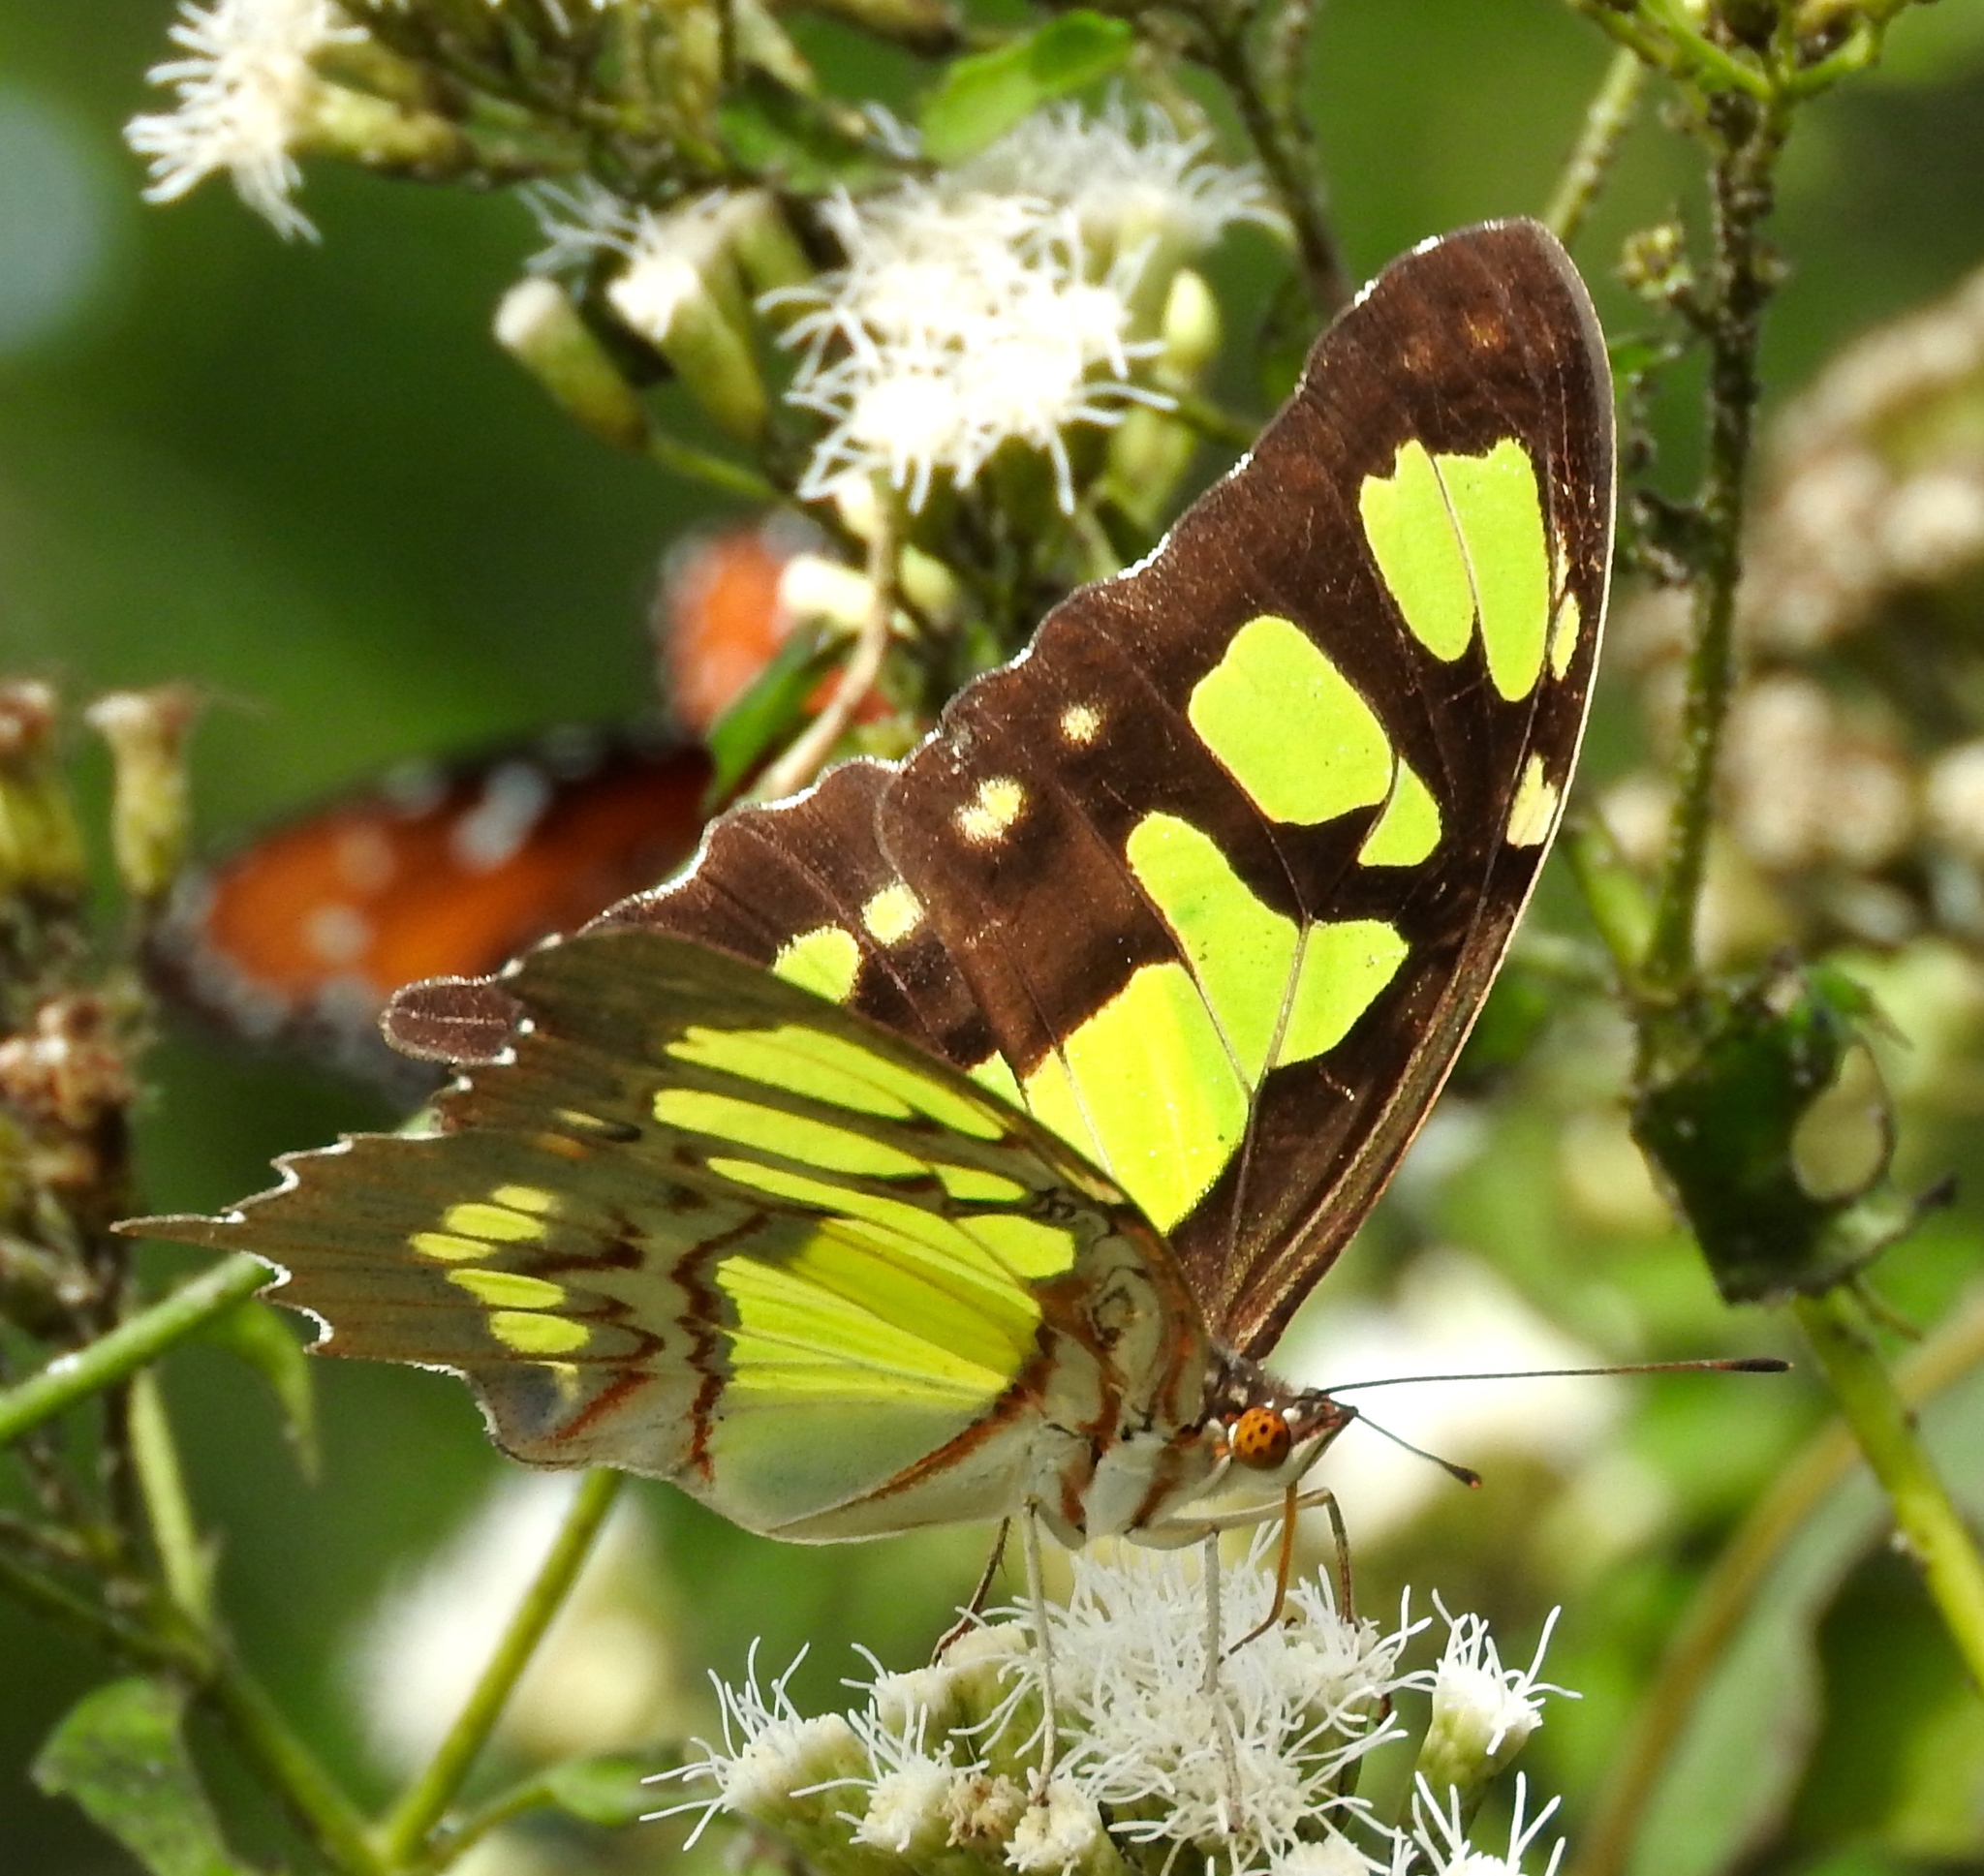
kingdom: Animalia
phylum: Arthropoda
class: Insecta
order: Lepidoptera
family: Nymphalidae
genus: Siproeta
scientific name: Siproeta stelenes
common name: Malachite
